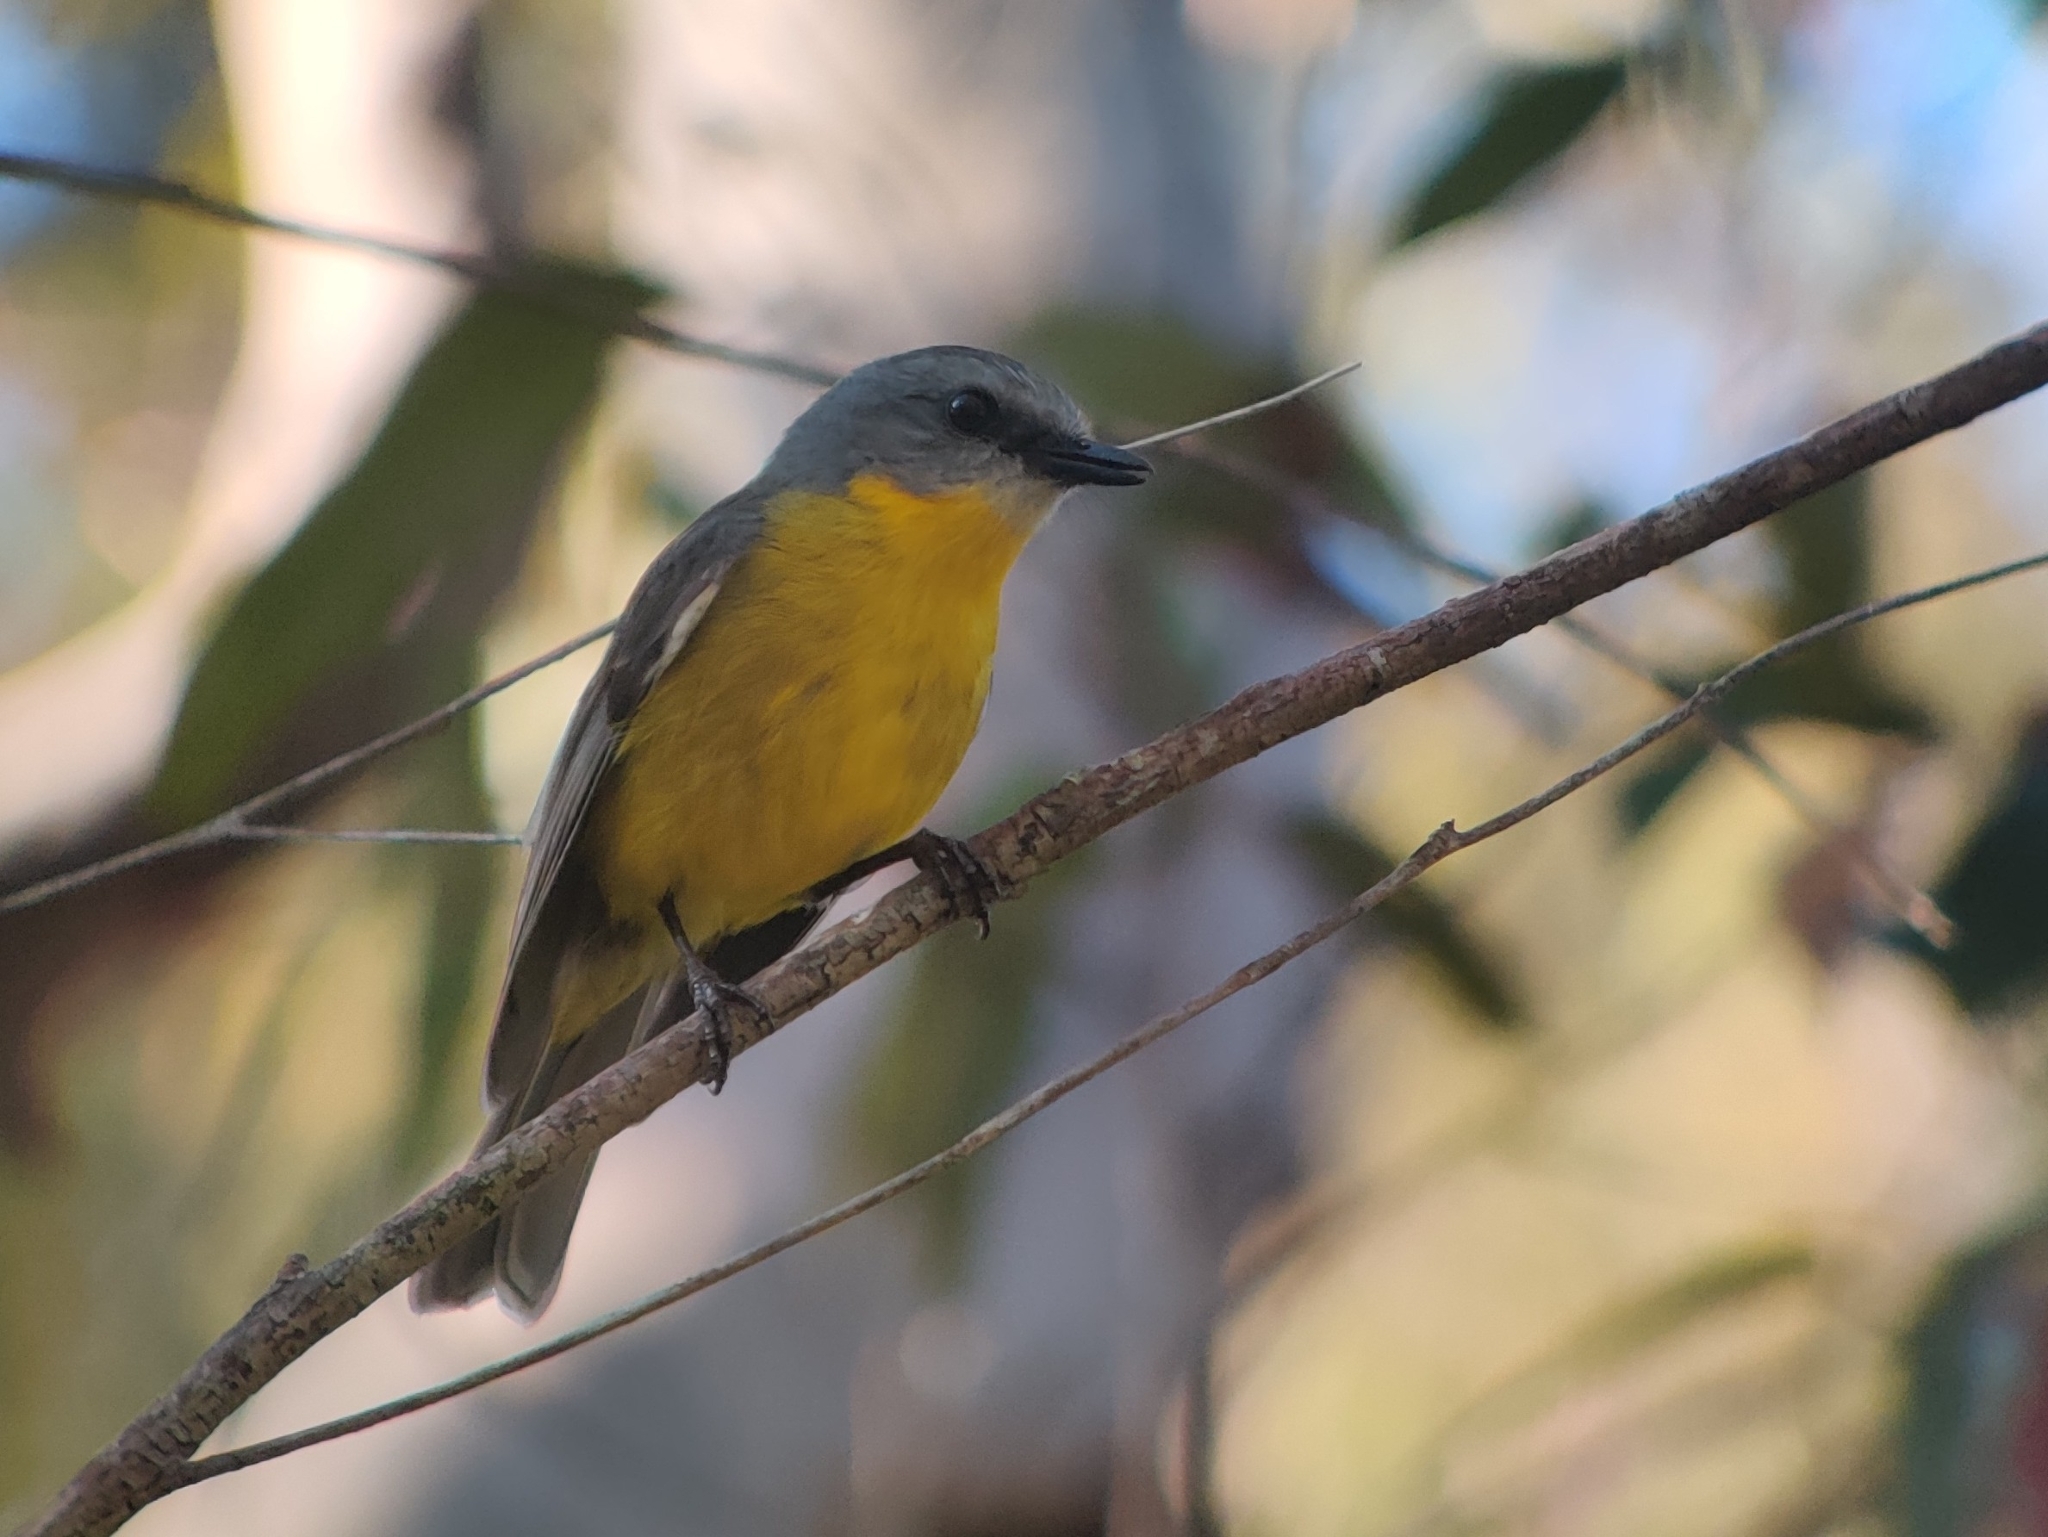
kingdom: Animalia
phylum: Chordata
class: Aves
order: Passeriformes
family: Petroicidae
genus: Eopsaltria
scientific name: Eopsaltria australis
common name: Eastern yellow robin
